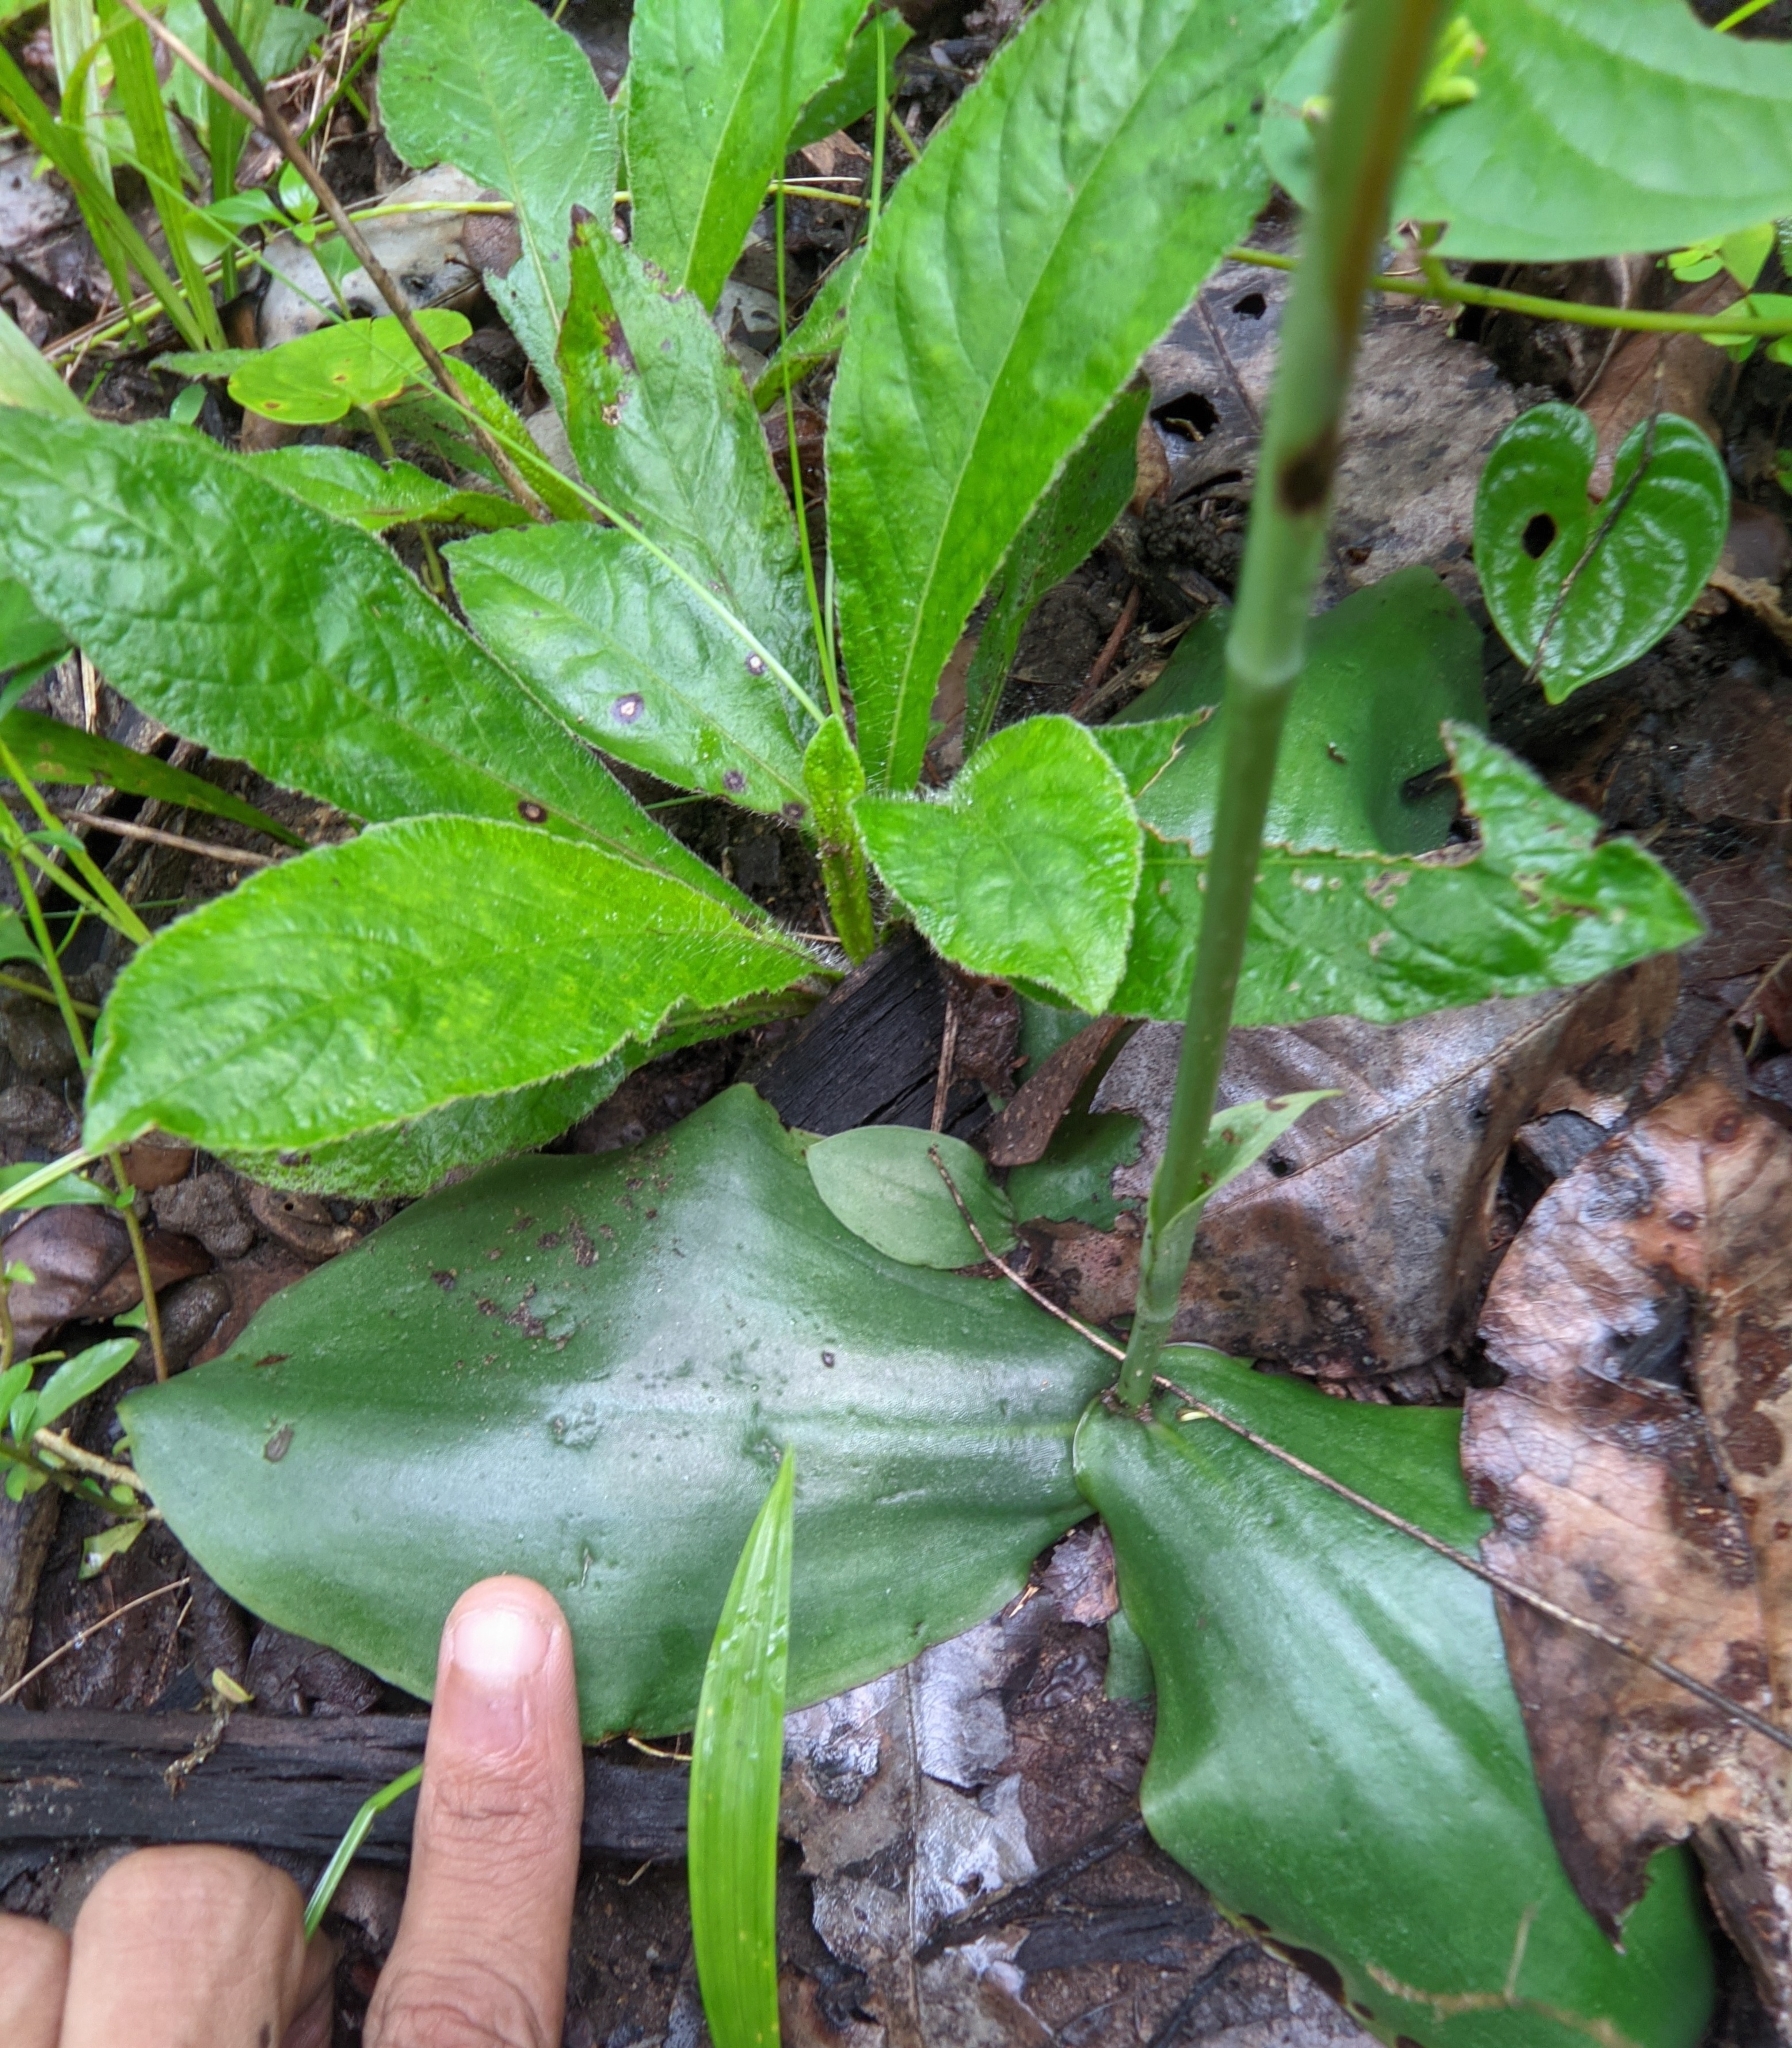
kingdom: Plantae
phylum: Tracheophyta
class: Liliopsida
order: Asparagales
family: Orchidaceae
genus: Habenaria
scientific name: Habenaria roxburghii
